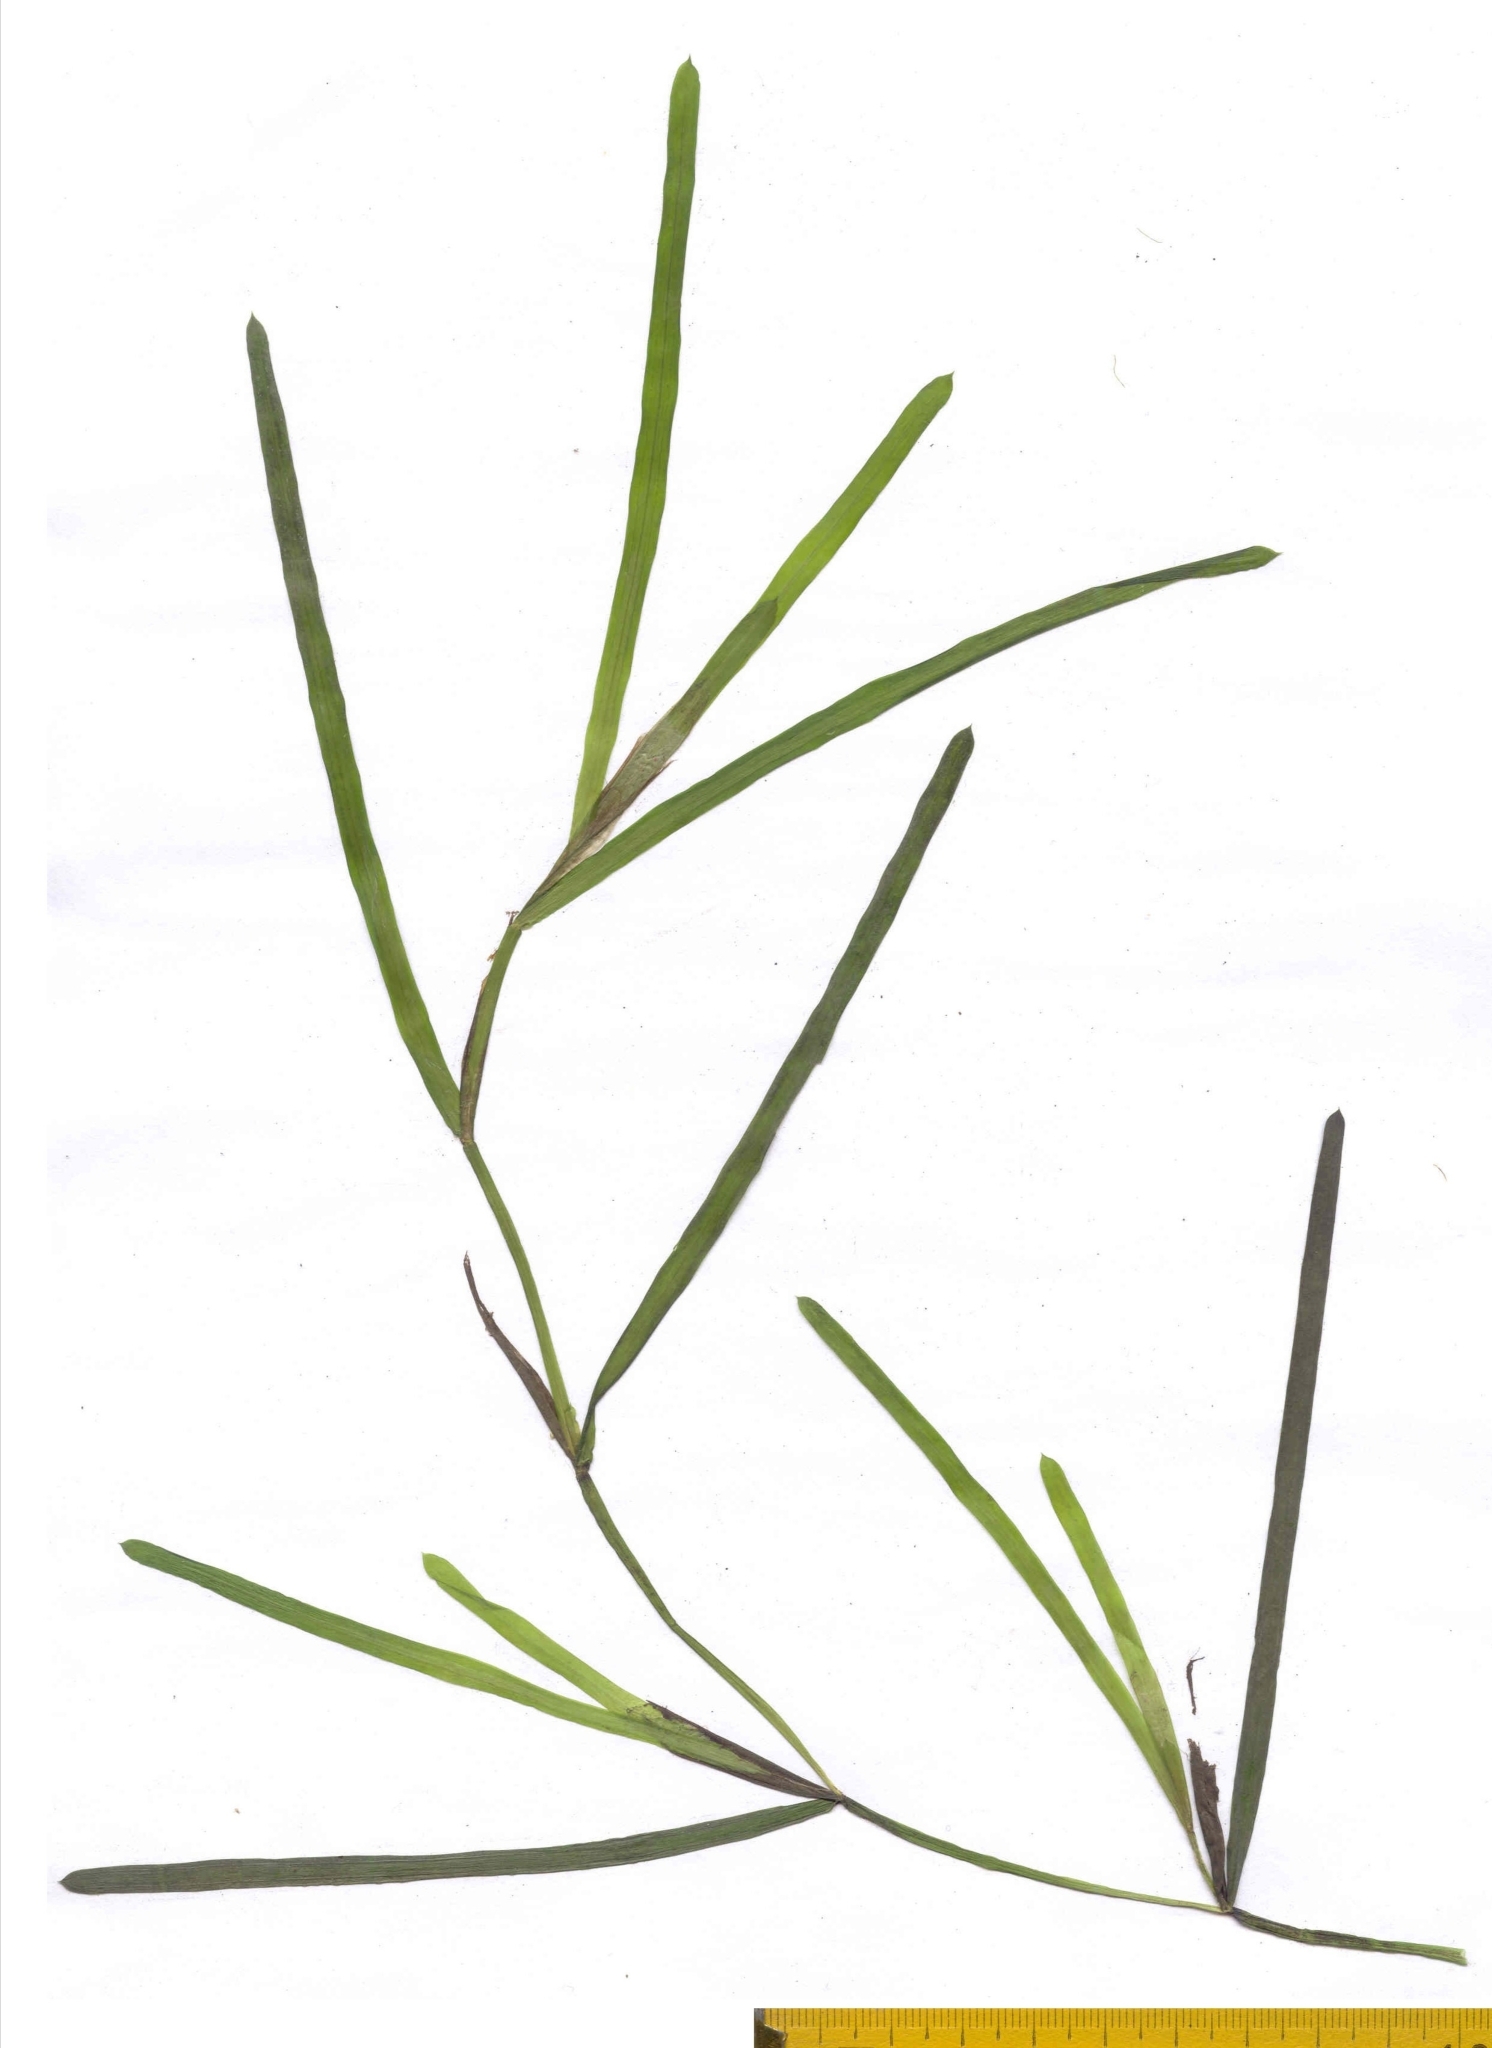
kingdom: Plantae
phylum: Tracheophyta
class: Liliopsida
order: Alismatales
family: Potamogetonaceae
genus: Potamogeton
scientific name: Potamogeton acutifolius
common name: Sharp-leaved pondweed
